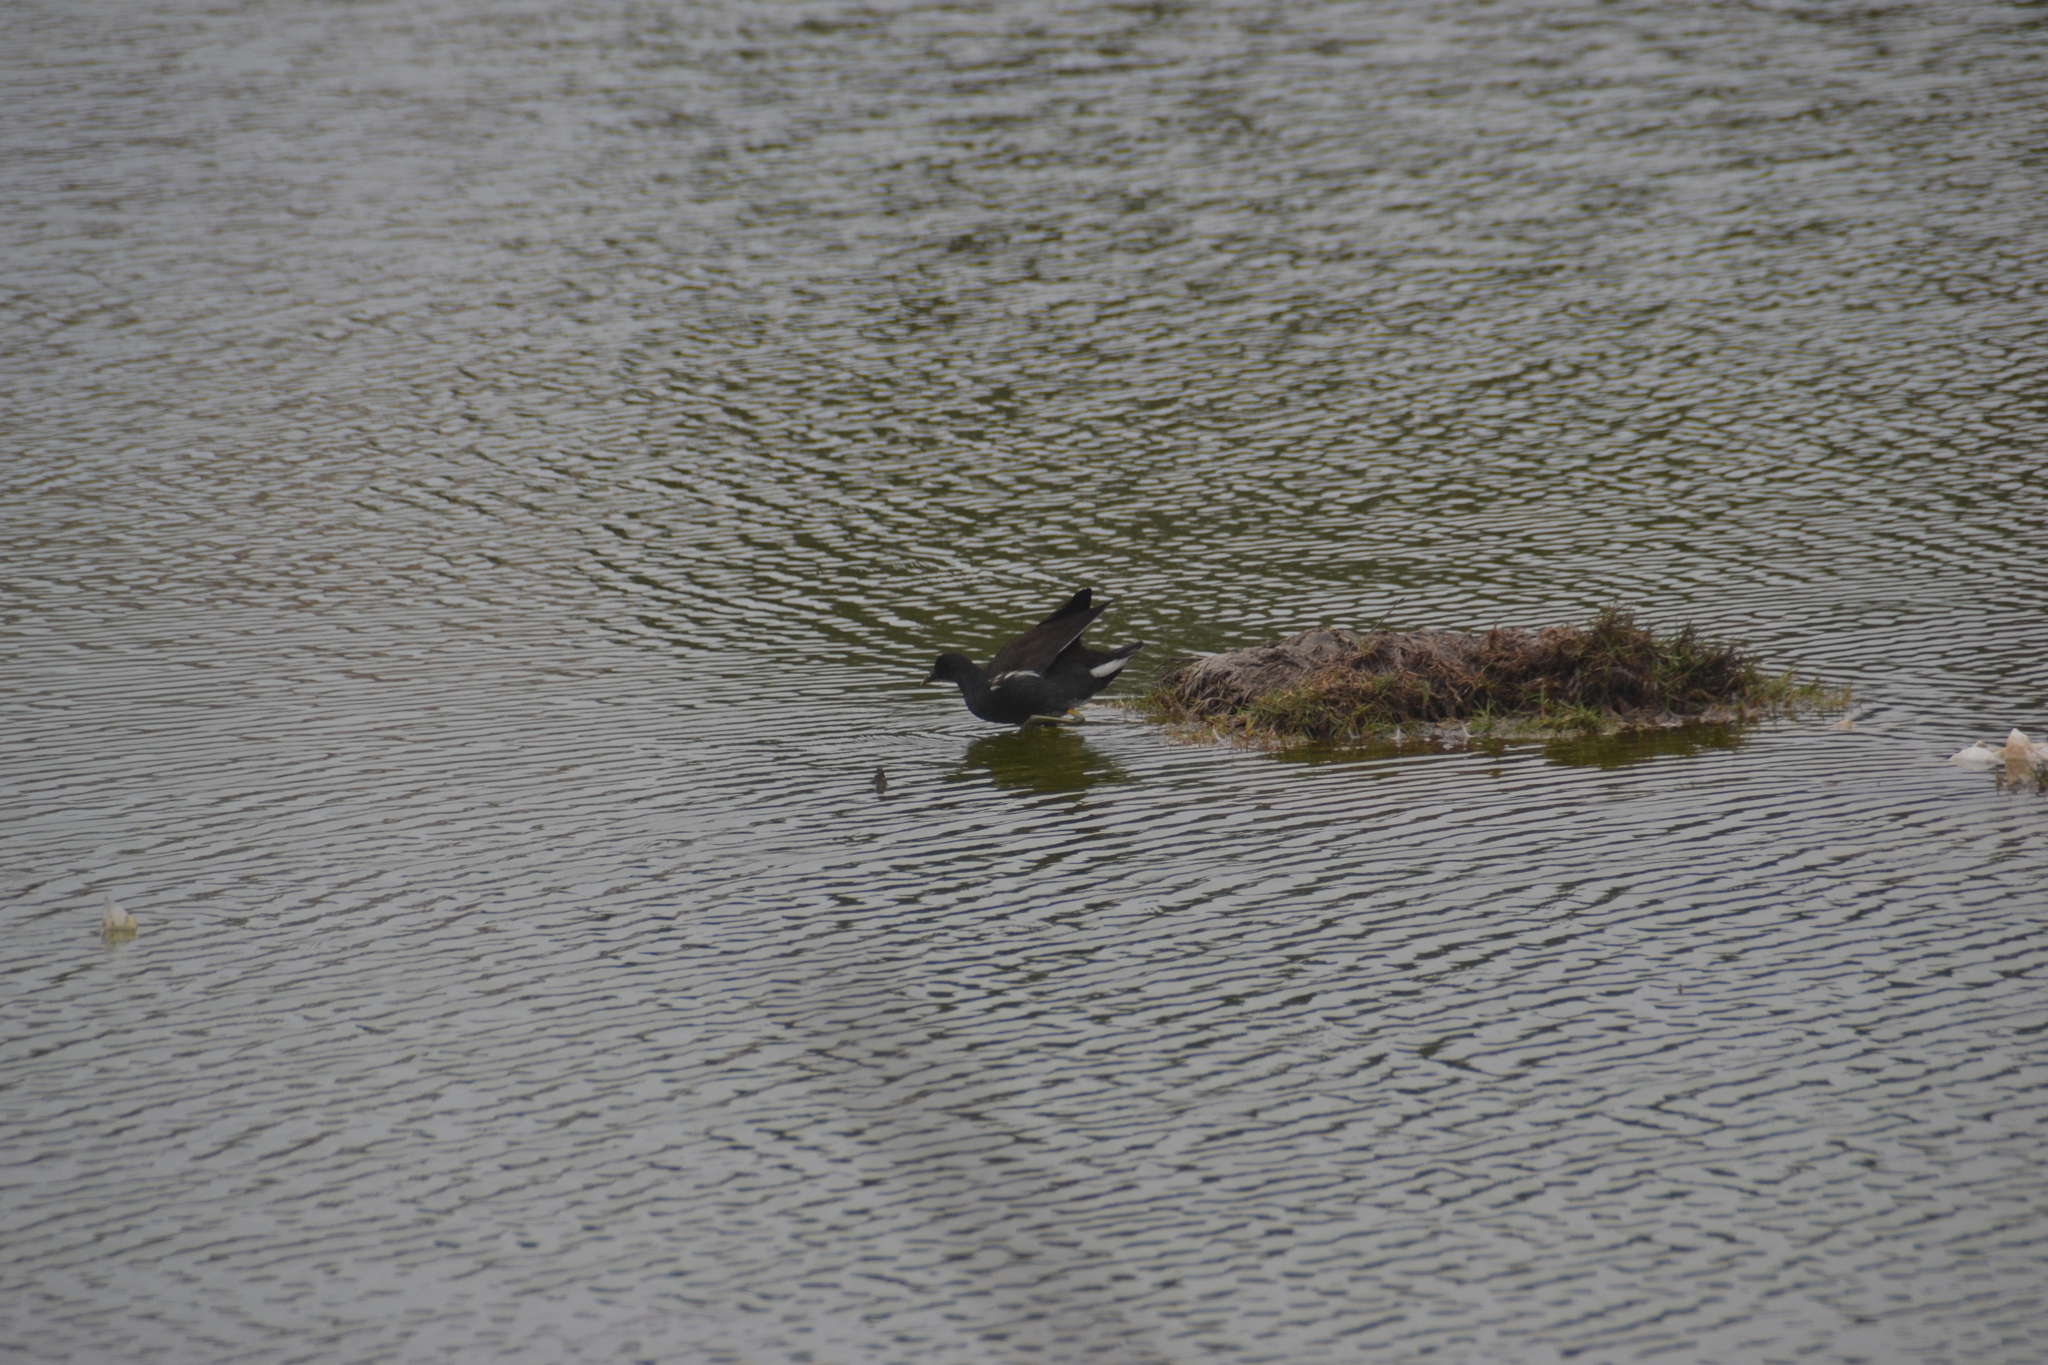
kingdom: Animalia
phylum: Chordata
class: Aves
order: Gruiformes
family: Rallidae
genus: Gallinula
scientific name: Gallinula chloropus
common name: Common moorhen
